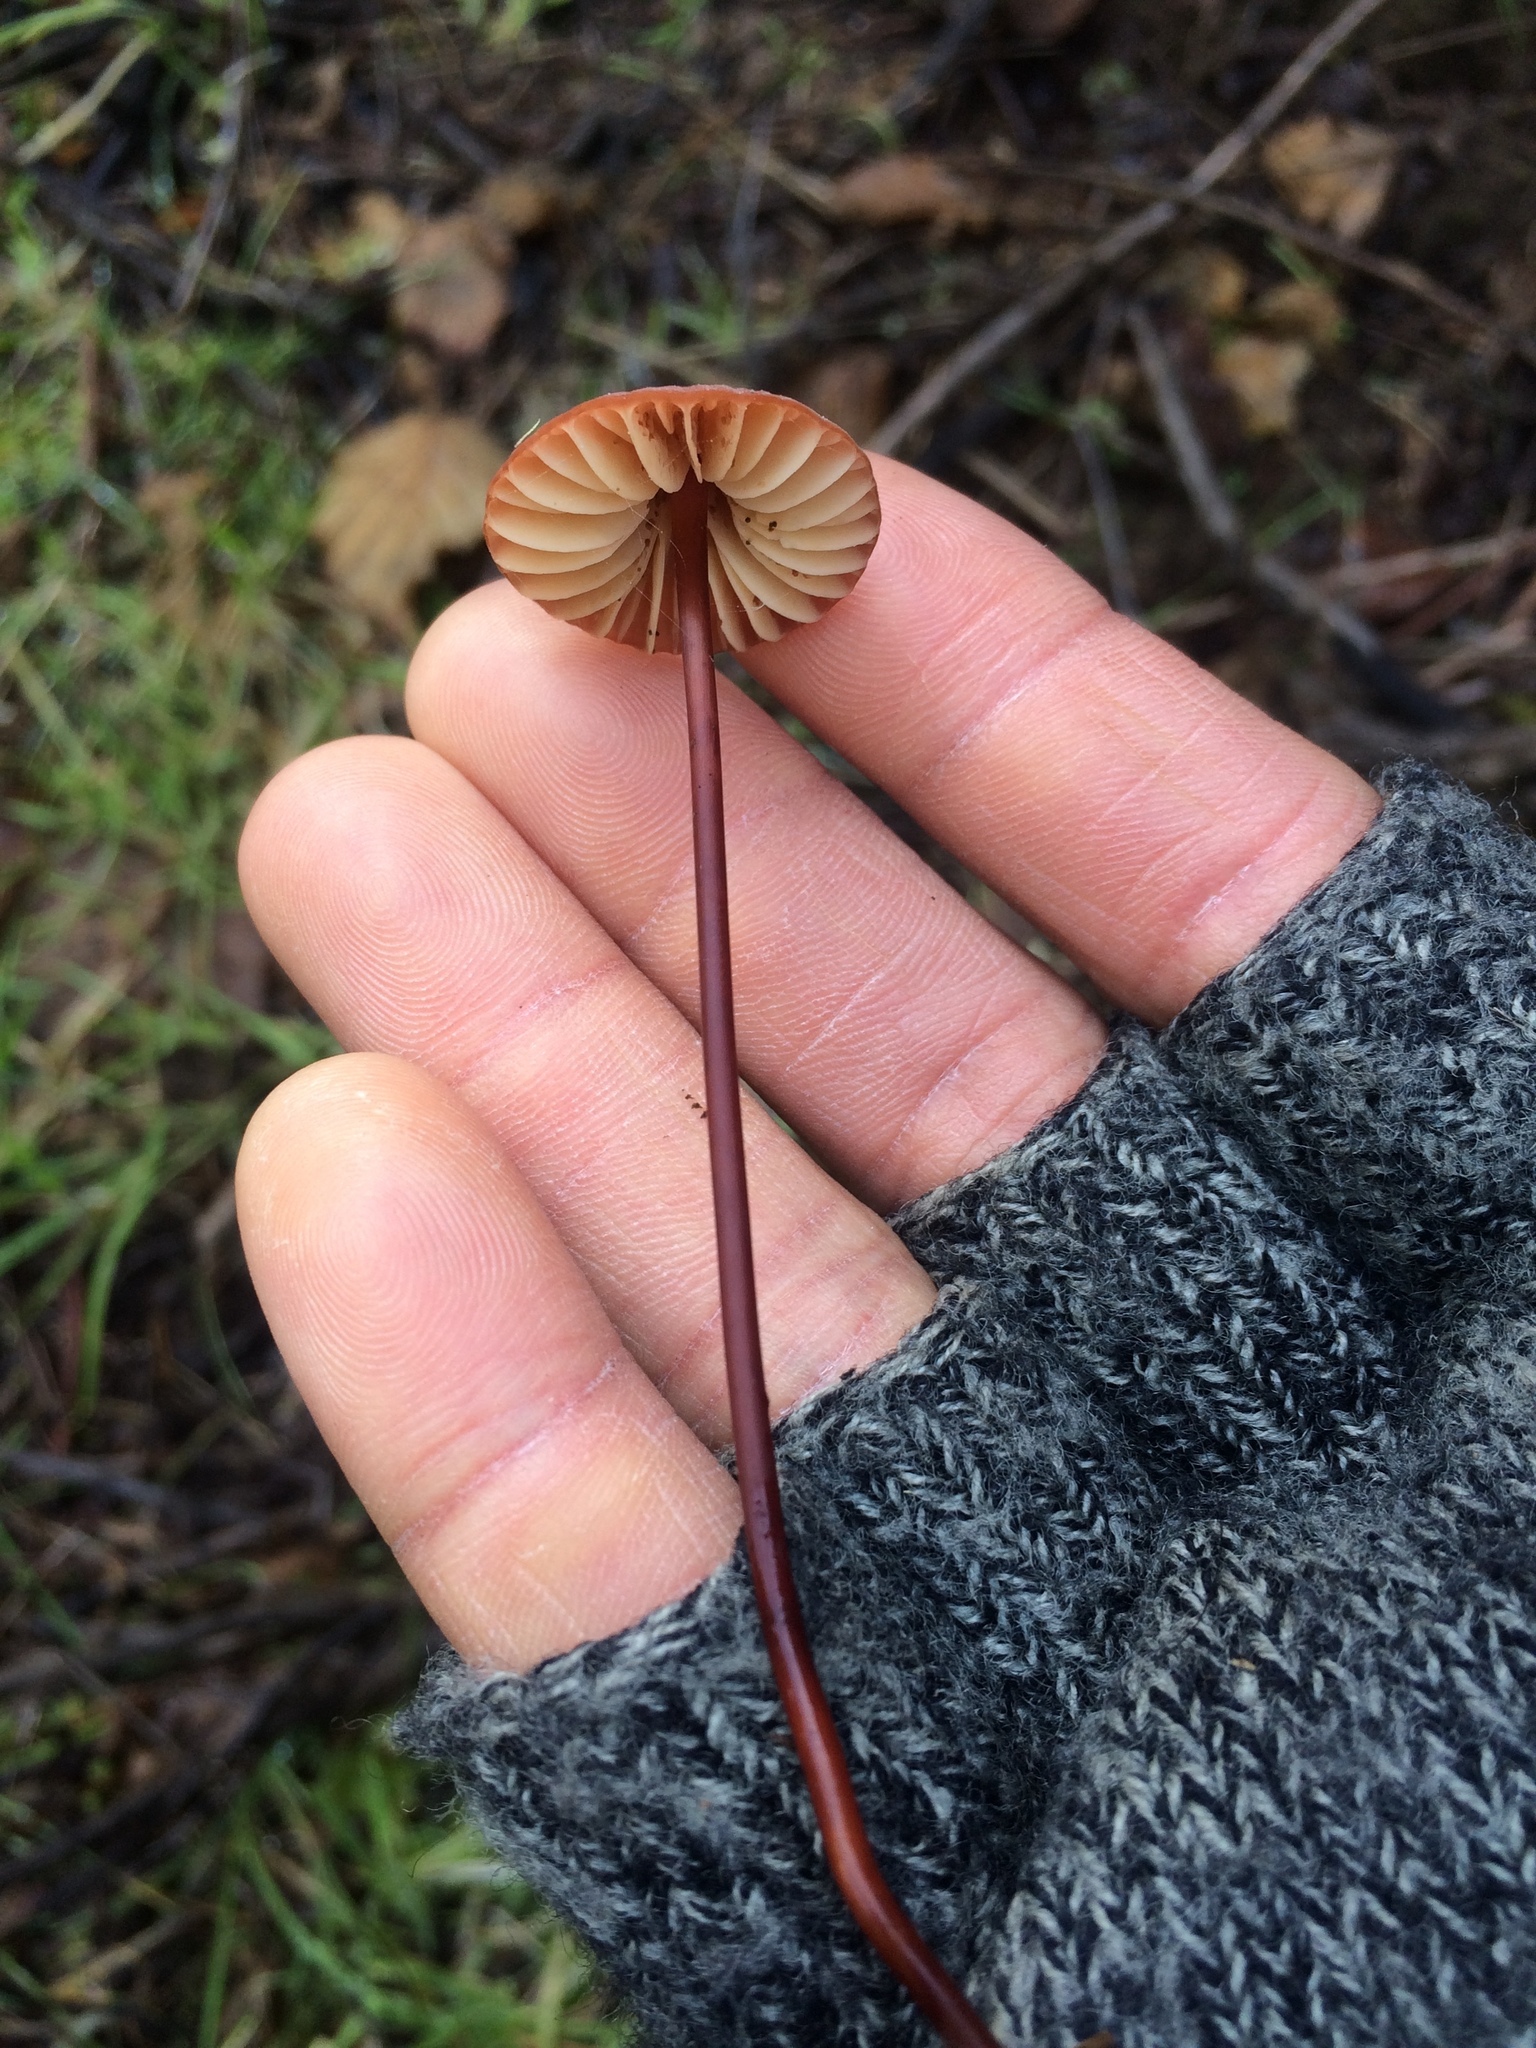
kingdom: Fungi
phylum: Basidiomycota
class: Agaricomycetes
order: Agaricales
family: Marasmiaceae
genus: Marasmius
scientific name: Marasmius plicatulus
